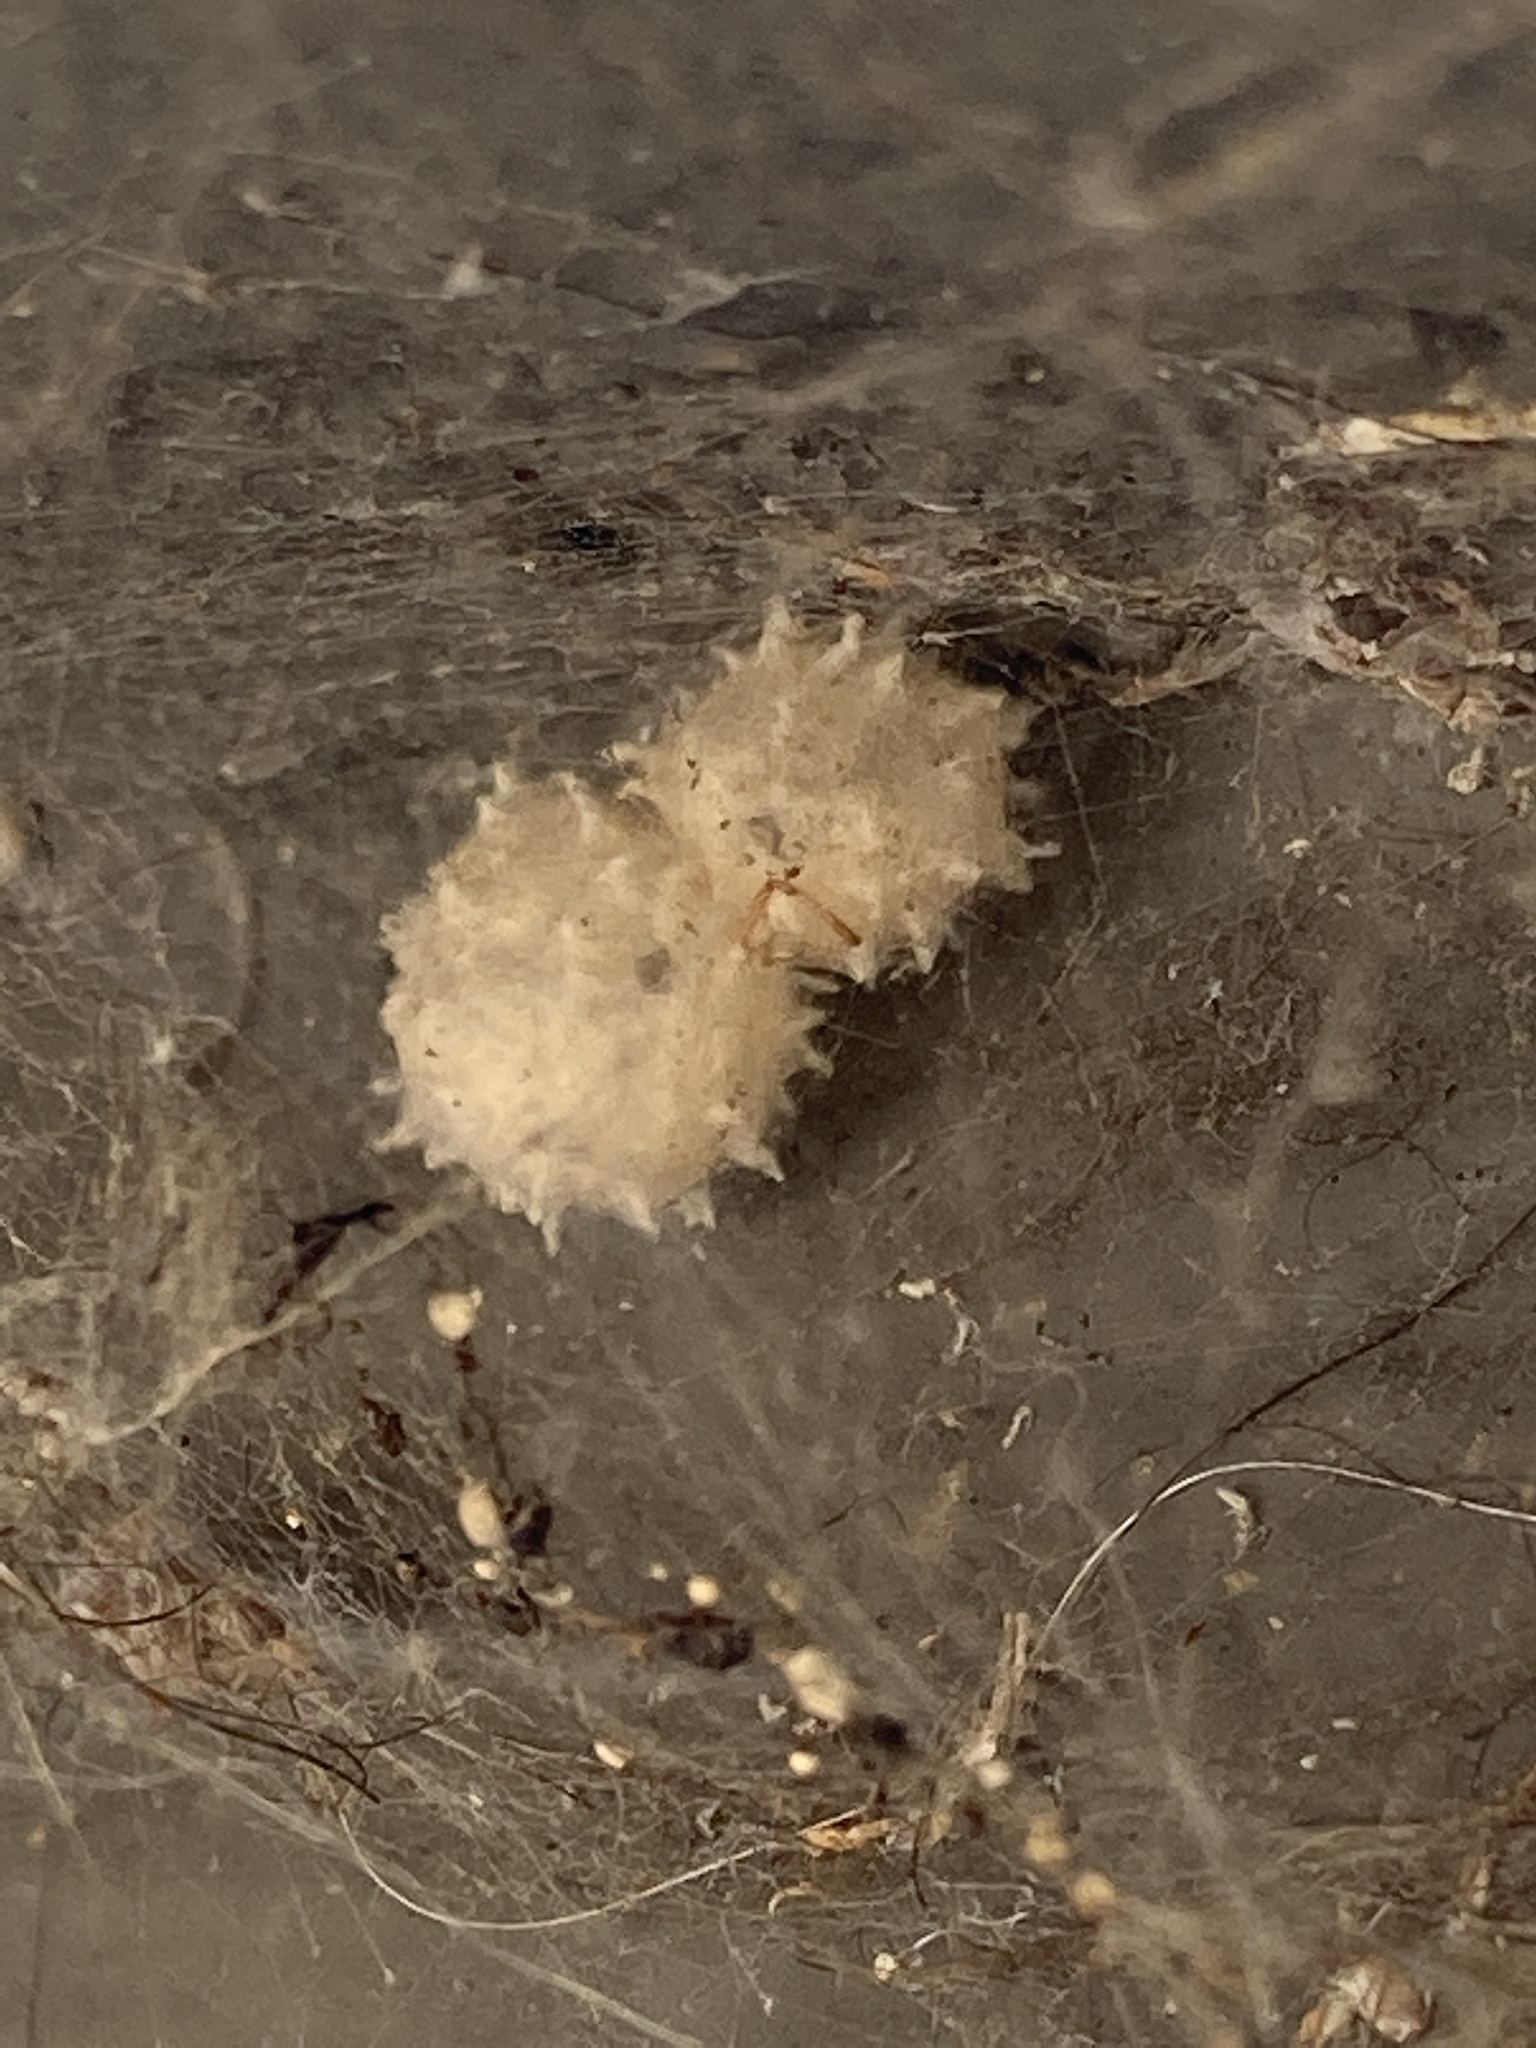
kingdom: Animalia
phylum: Arthropoda
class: Arachnida
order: Araneae
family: Theridiidae
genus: Latrodectus
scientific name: Latrodectus geometricus
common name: Brown widow spider
